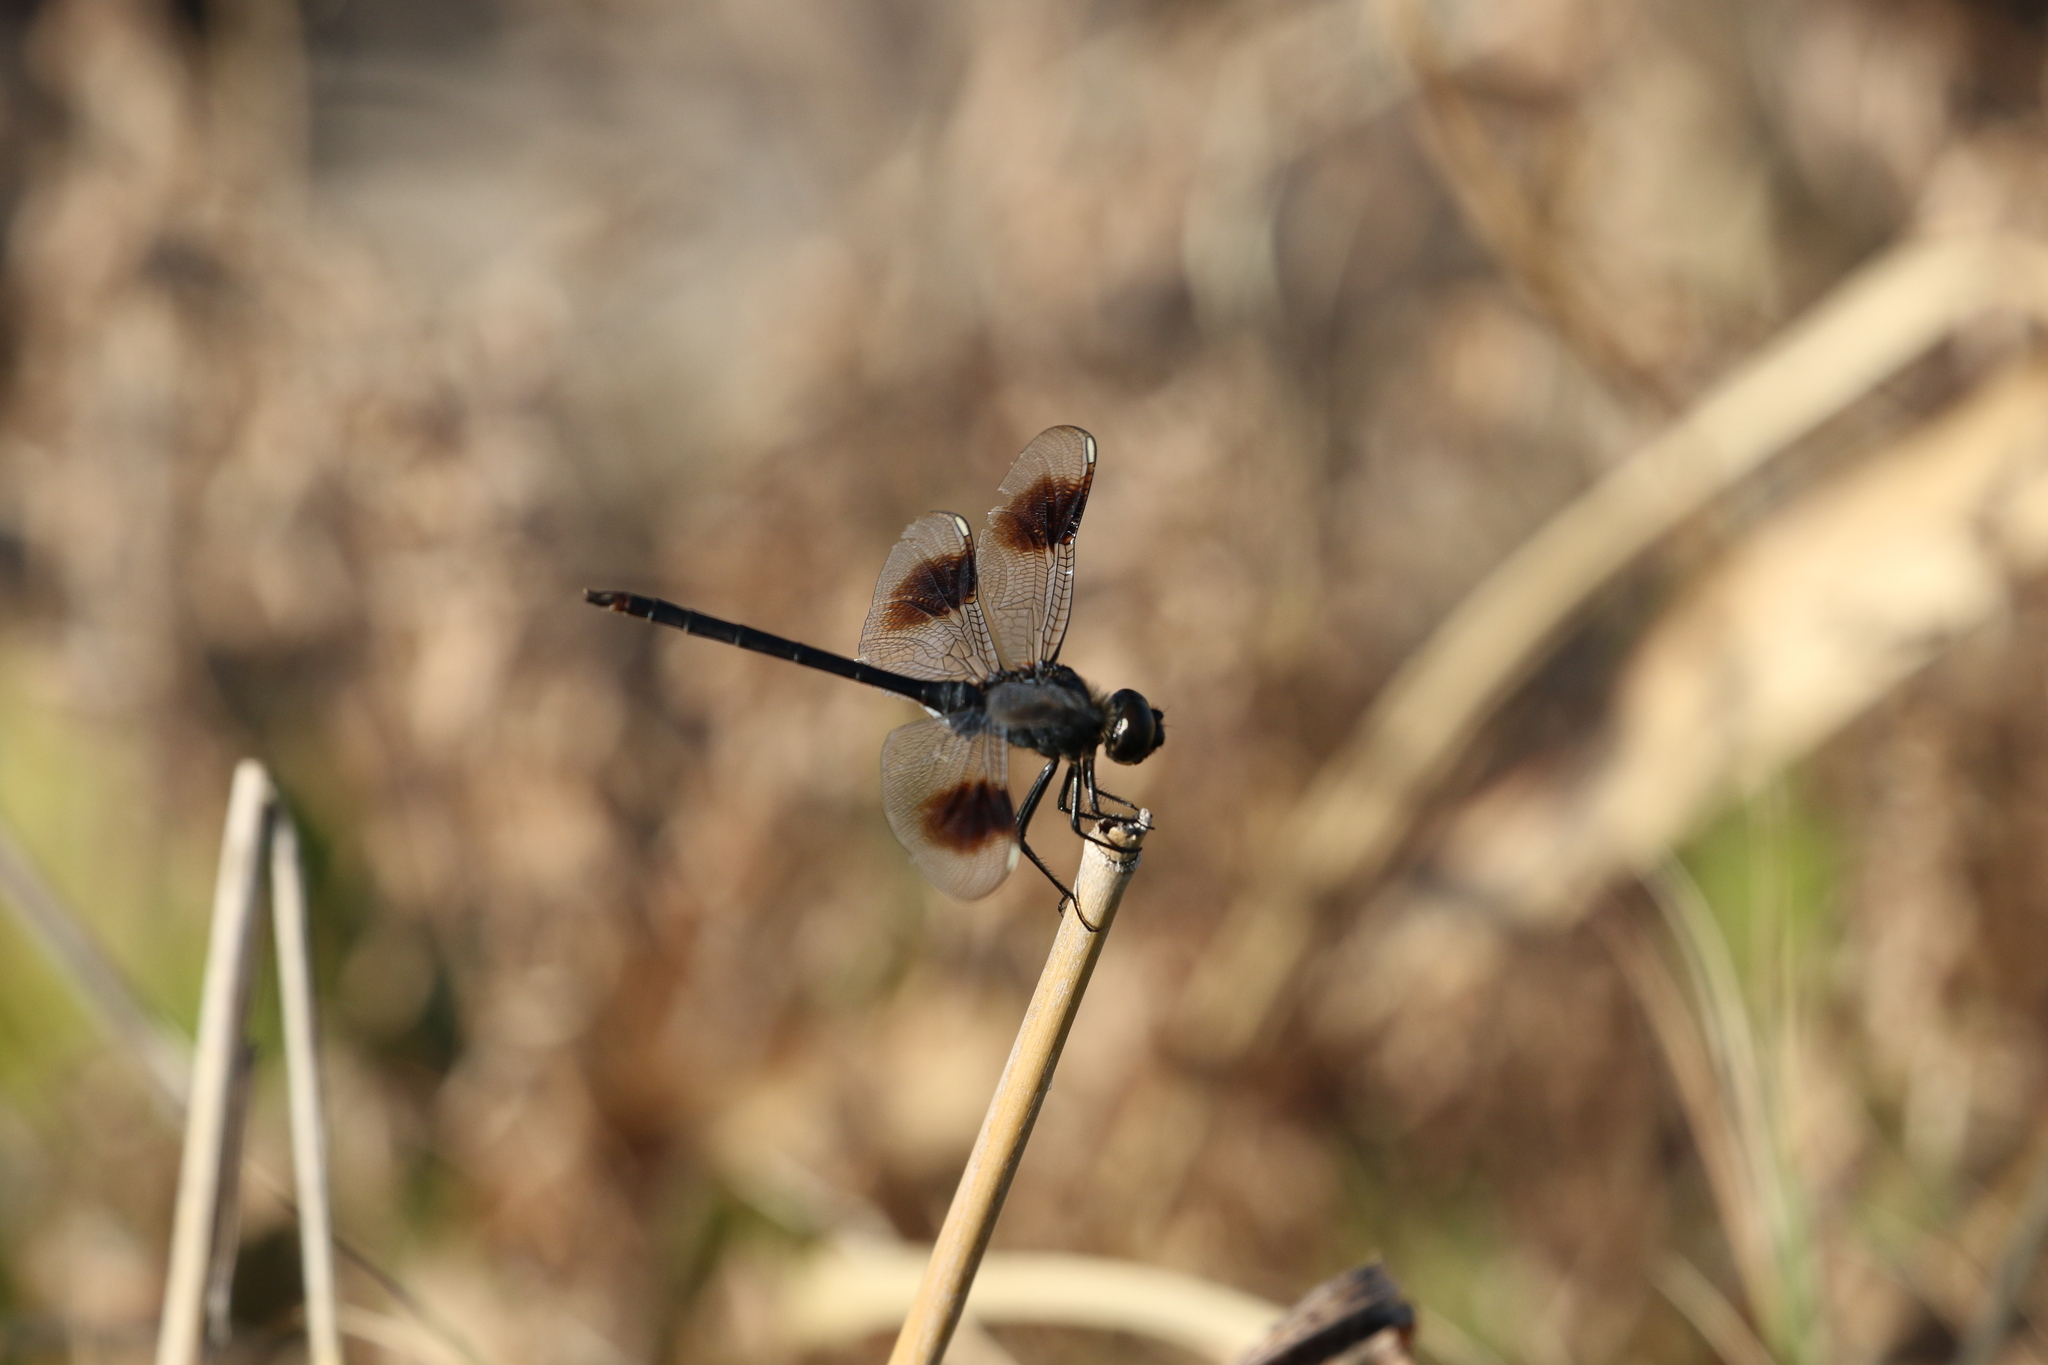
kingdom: Animalia
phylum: Arthropoda
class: Insecta
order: Odonata
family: Libellulidae
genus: Brachymesia
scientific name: Brachymesia gravida
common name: Four-spotted pennant
